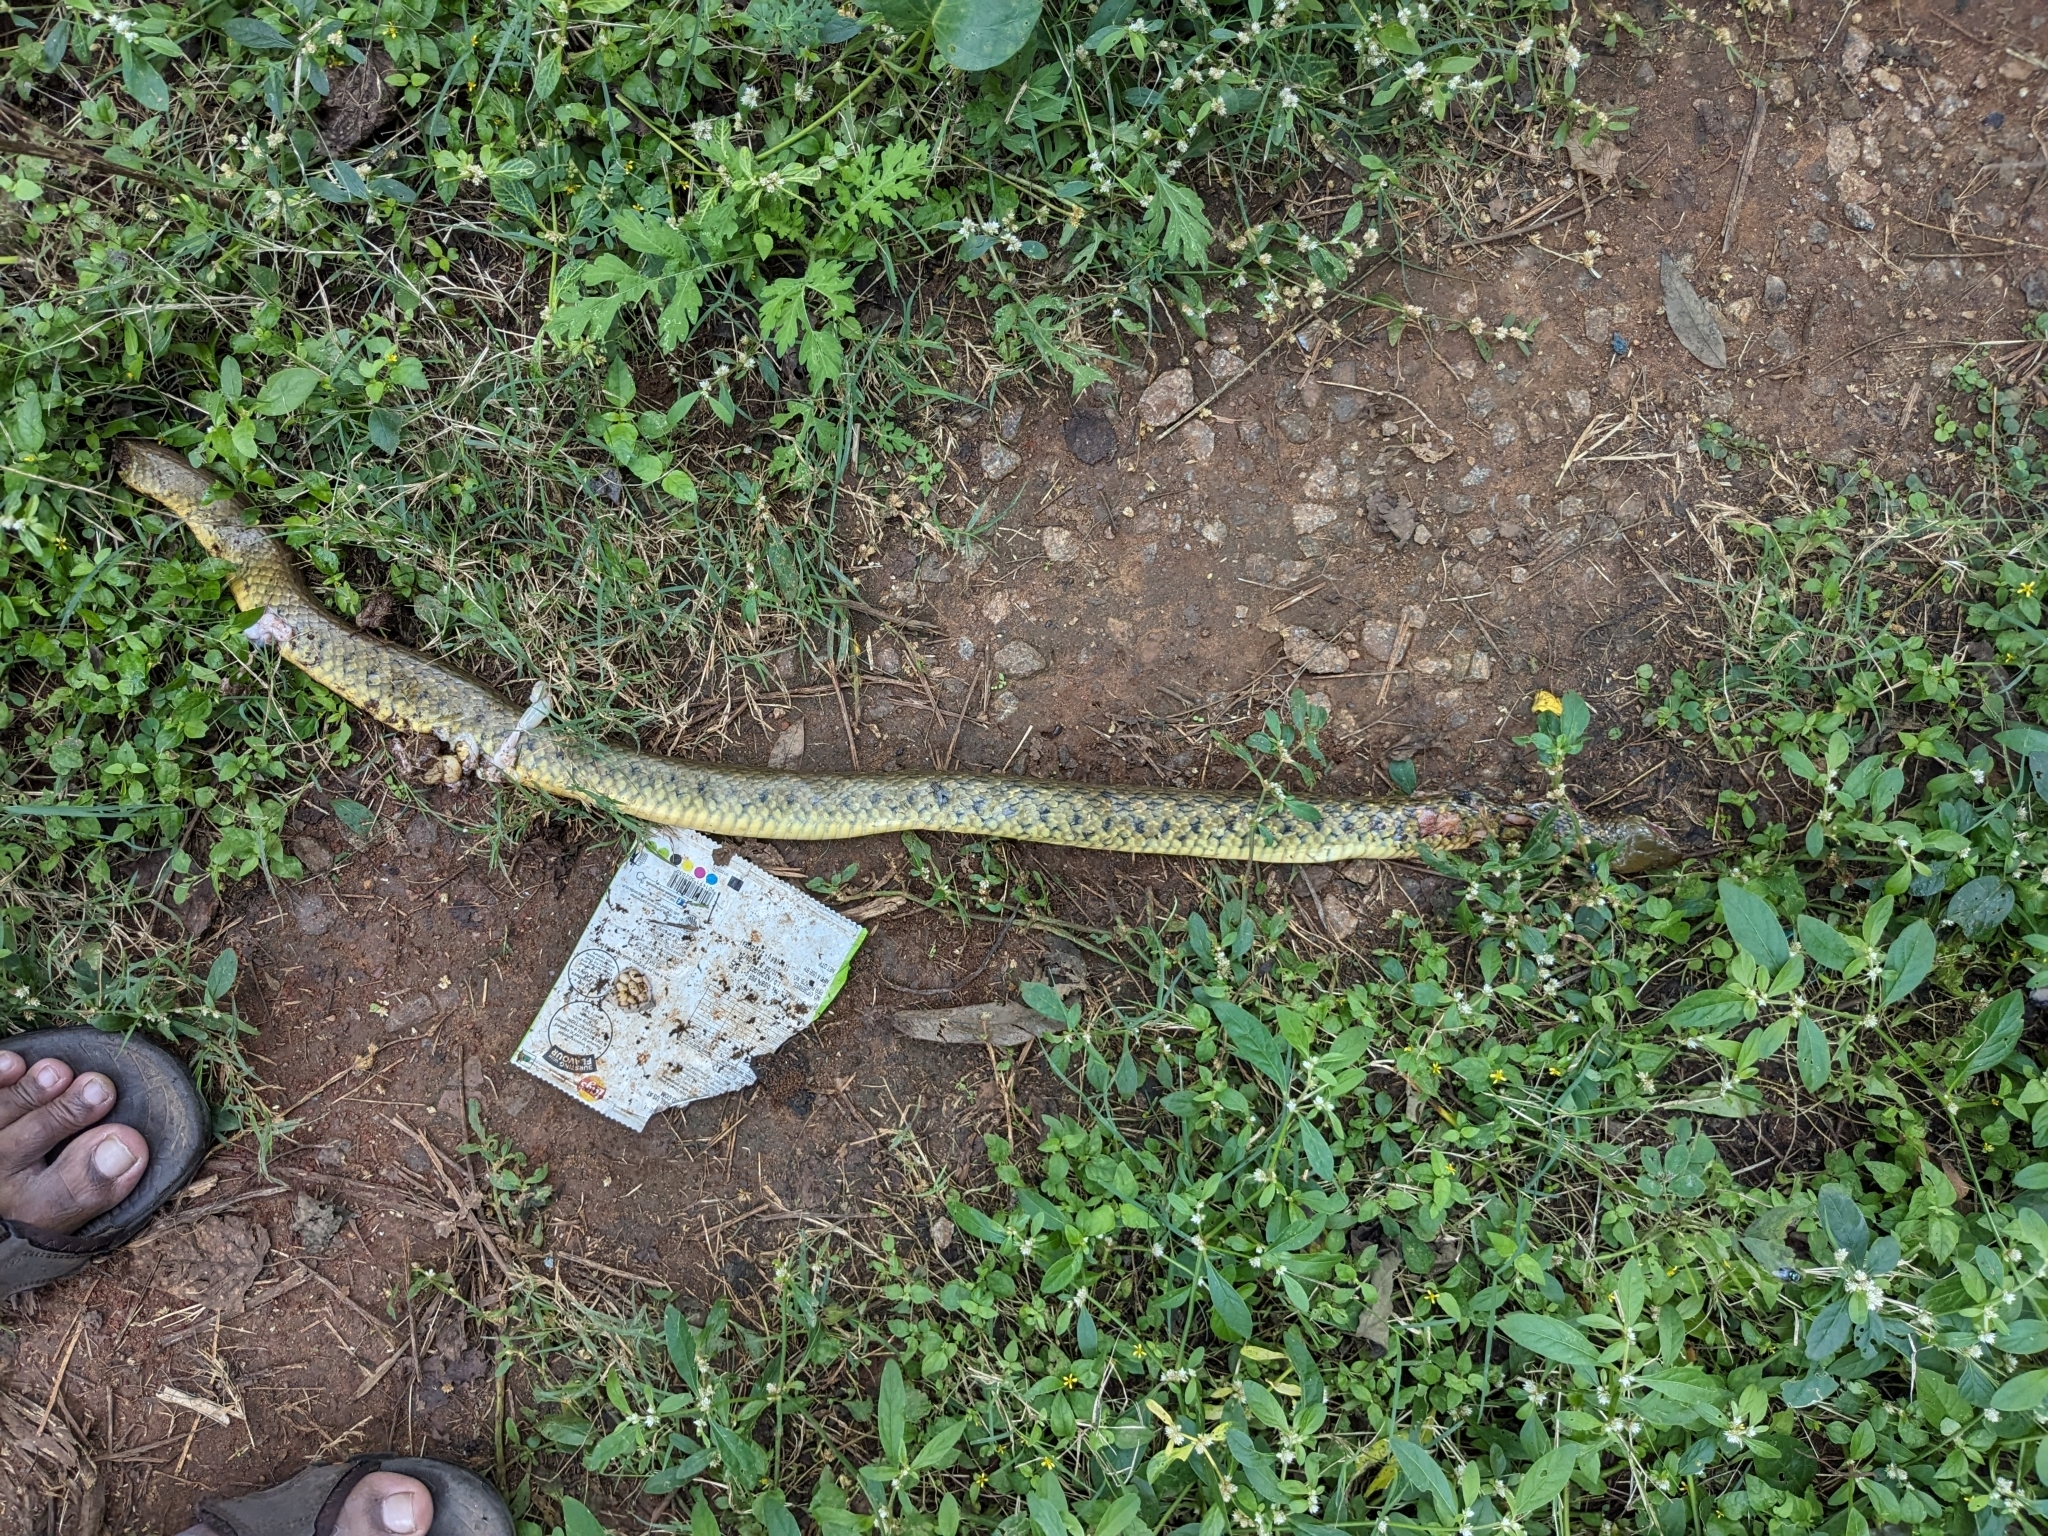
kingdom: Animalia
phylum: Chordata
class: Squamata
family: Colubridae
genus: Fowlea
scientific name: Fowlea piscator
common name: Asiatic water snake
